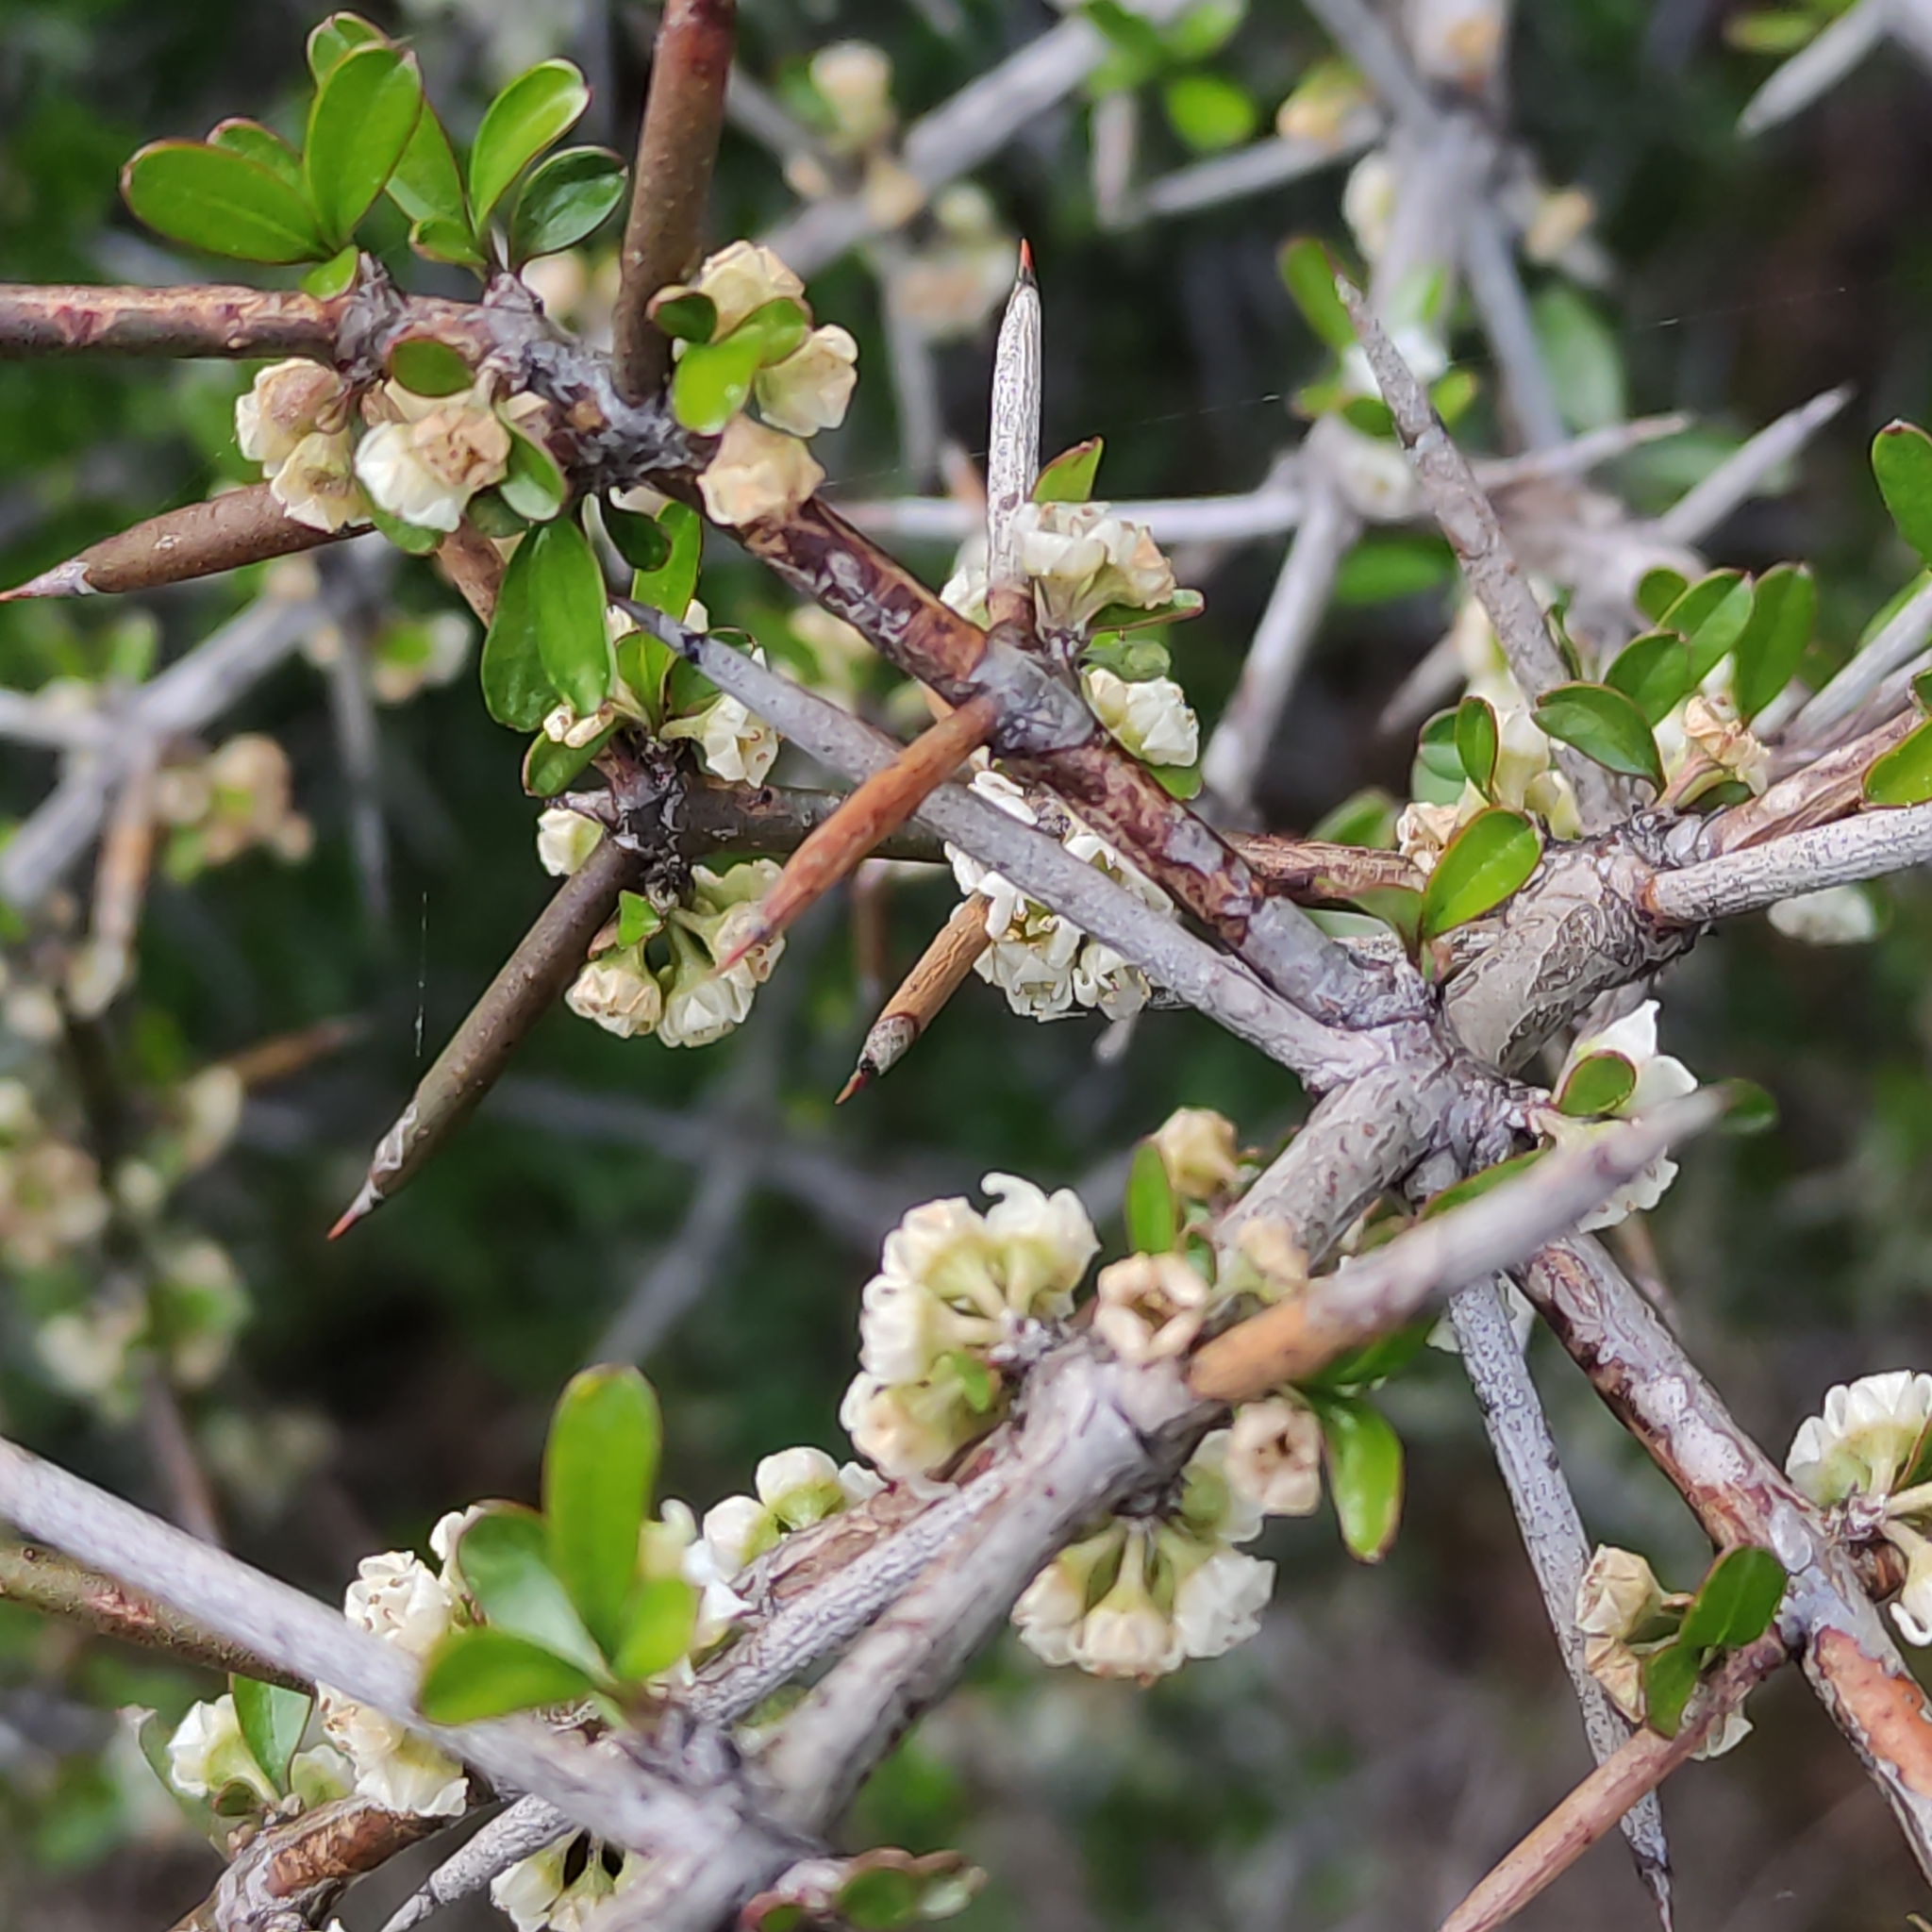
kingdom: Plantae
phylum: Tracheophyta
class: Magnoliopsida
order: Rosales
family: Rhamnaceae
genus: Discaria
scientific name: Discaria toumatou
